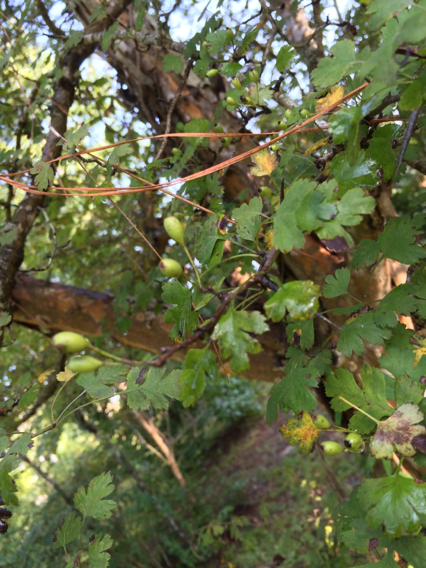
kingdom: Plantae
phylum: Tracheophyta
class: Magnoliopsida
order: Rosales
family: Rosaceae
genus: Crataegus
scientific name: Crataegus marshallii
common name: Parsley-hawthorn
